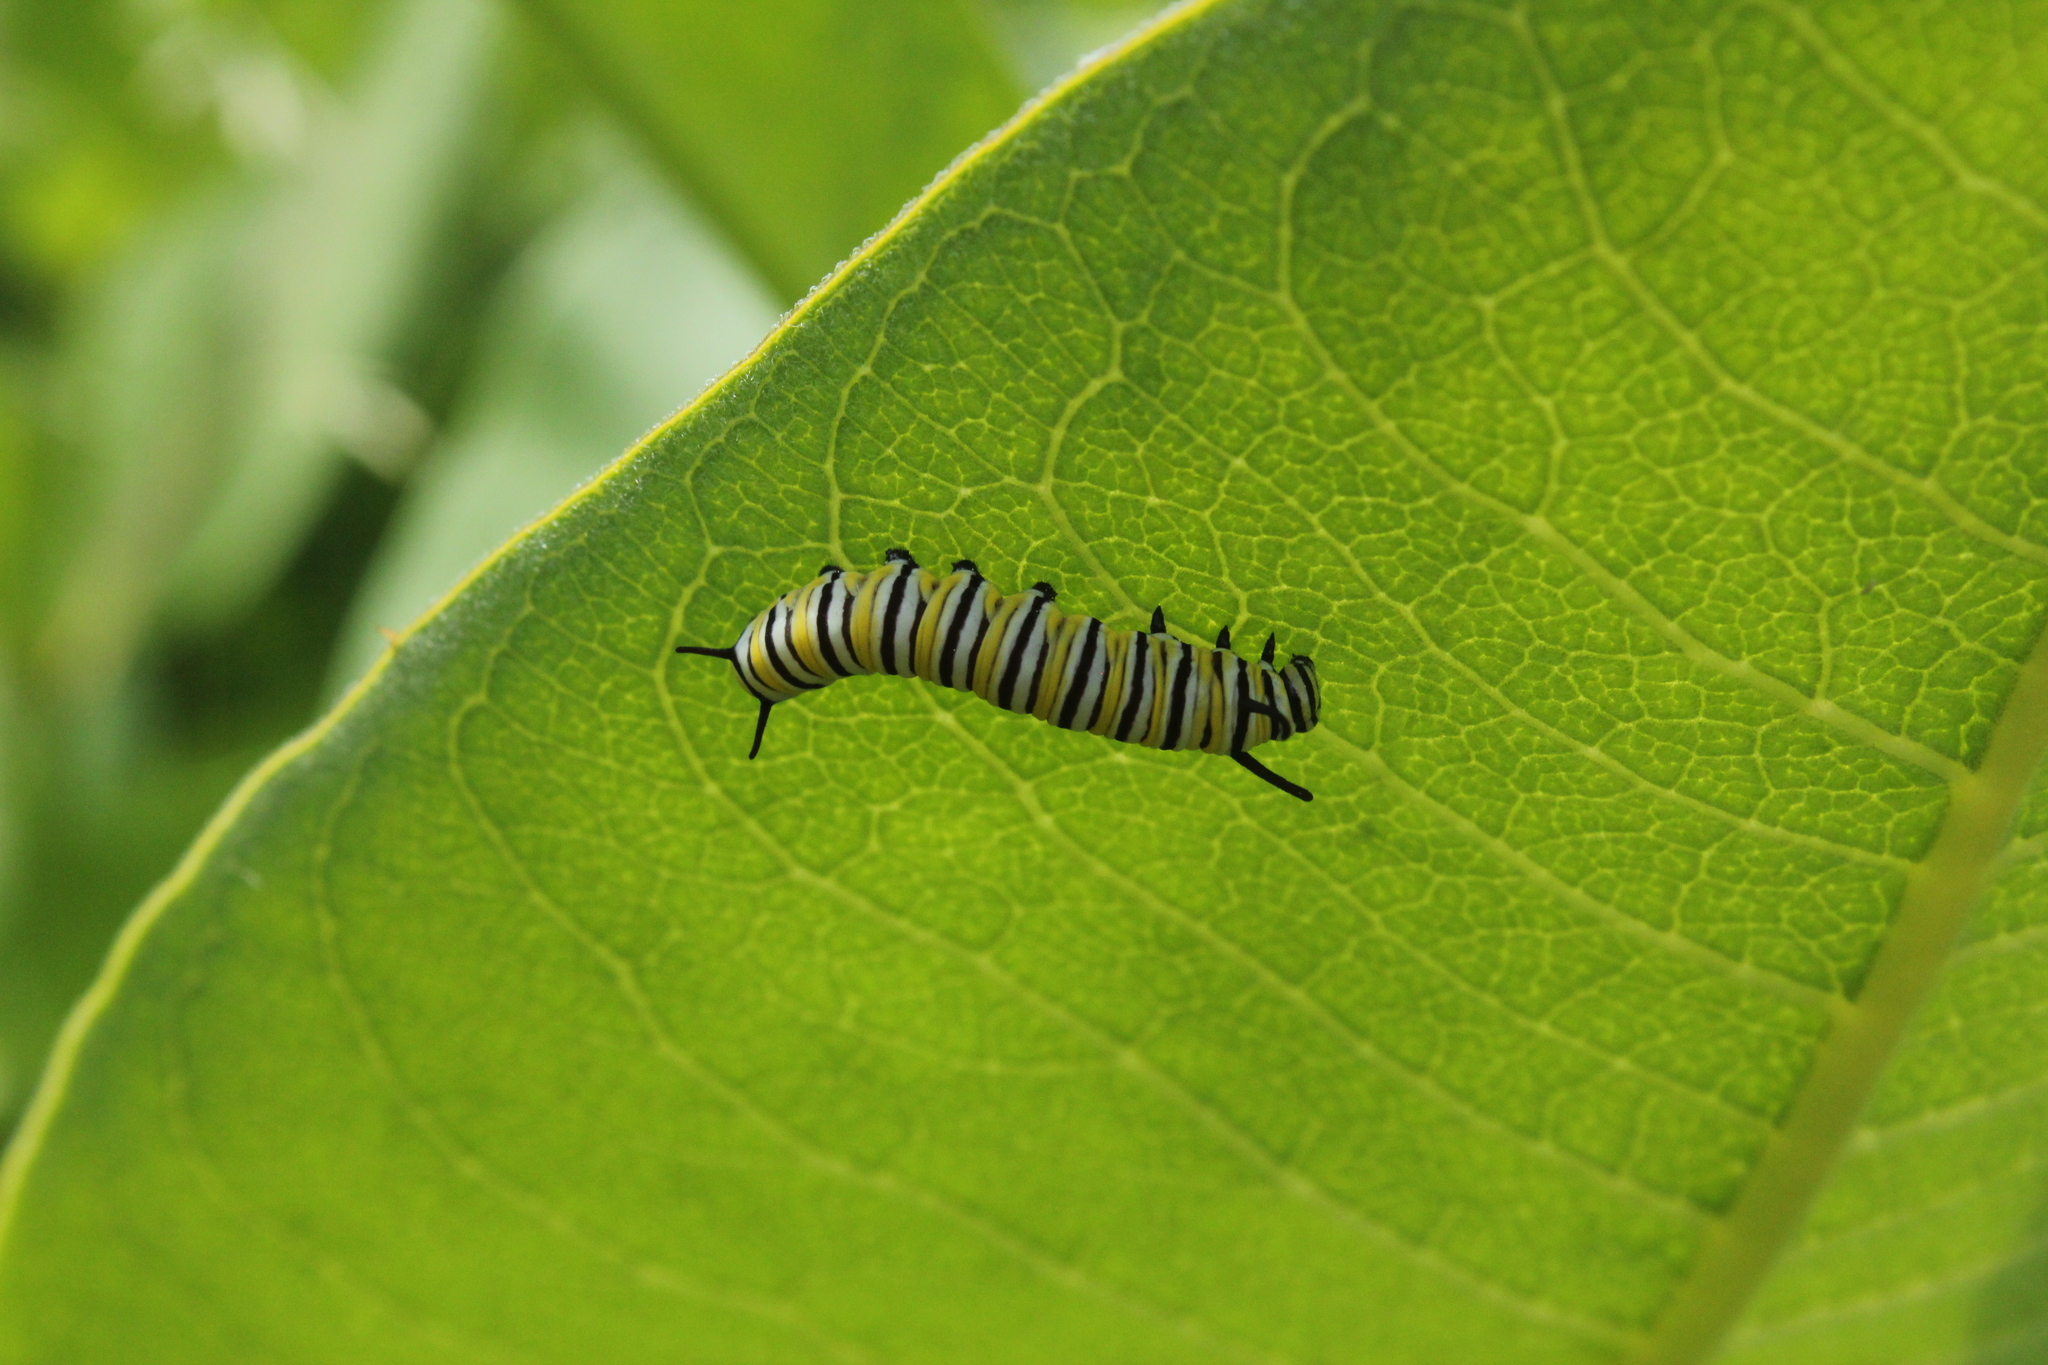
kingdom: Animalia
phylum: Arthropoda
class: Insecta
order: Lepidoptera
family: Nymphalidae
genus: Danaus
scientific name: Danaus plexippus
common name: Monarch
